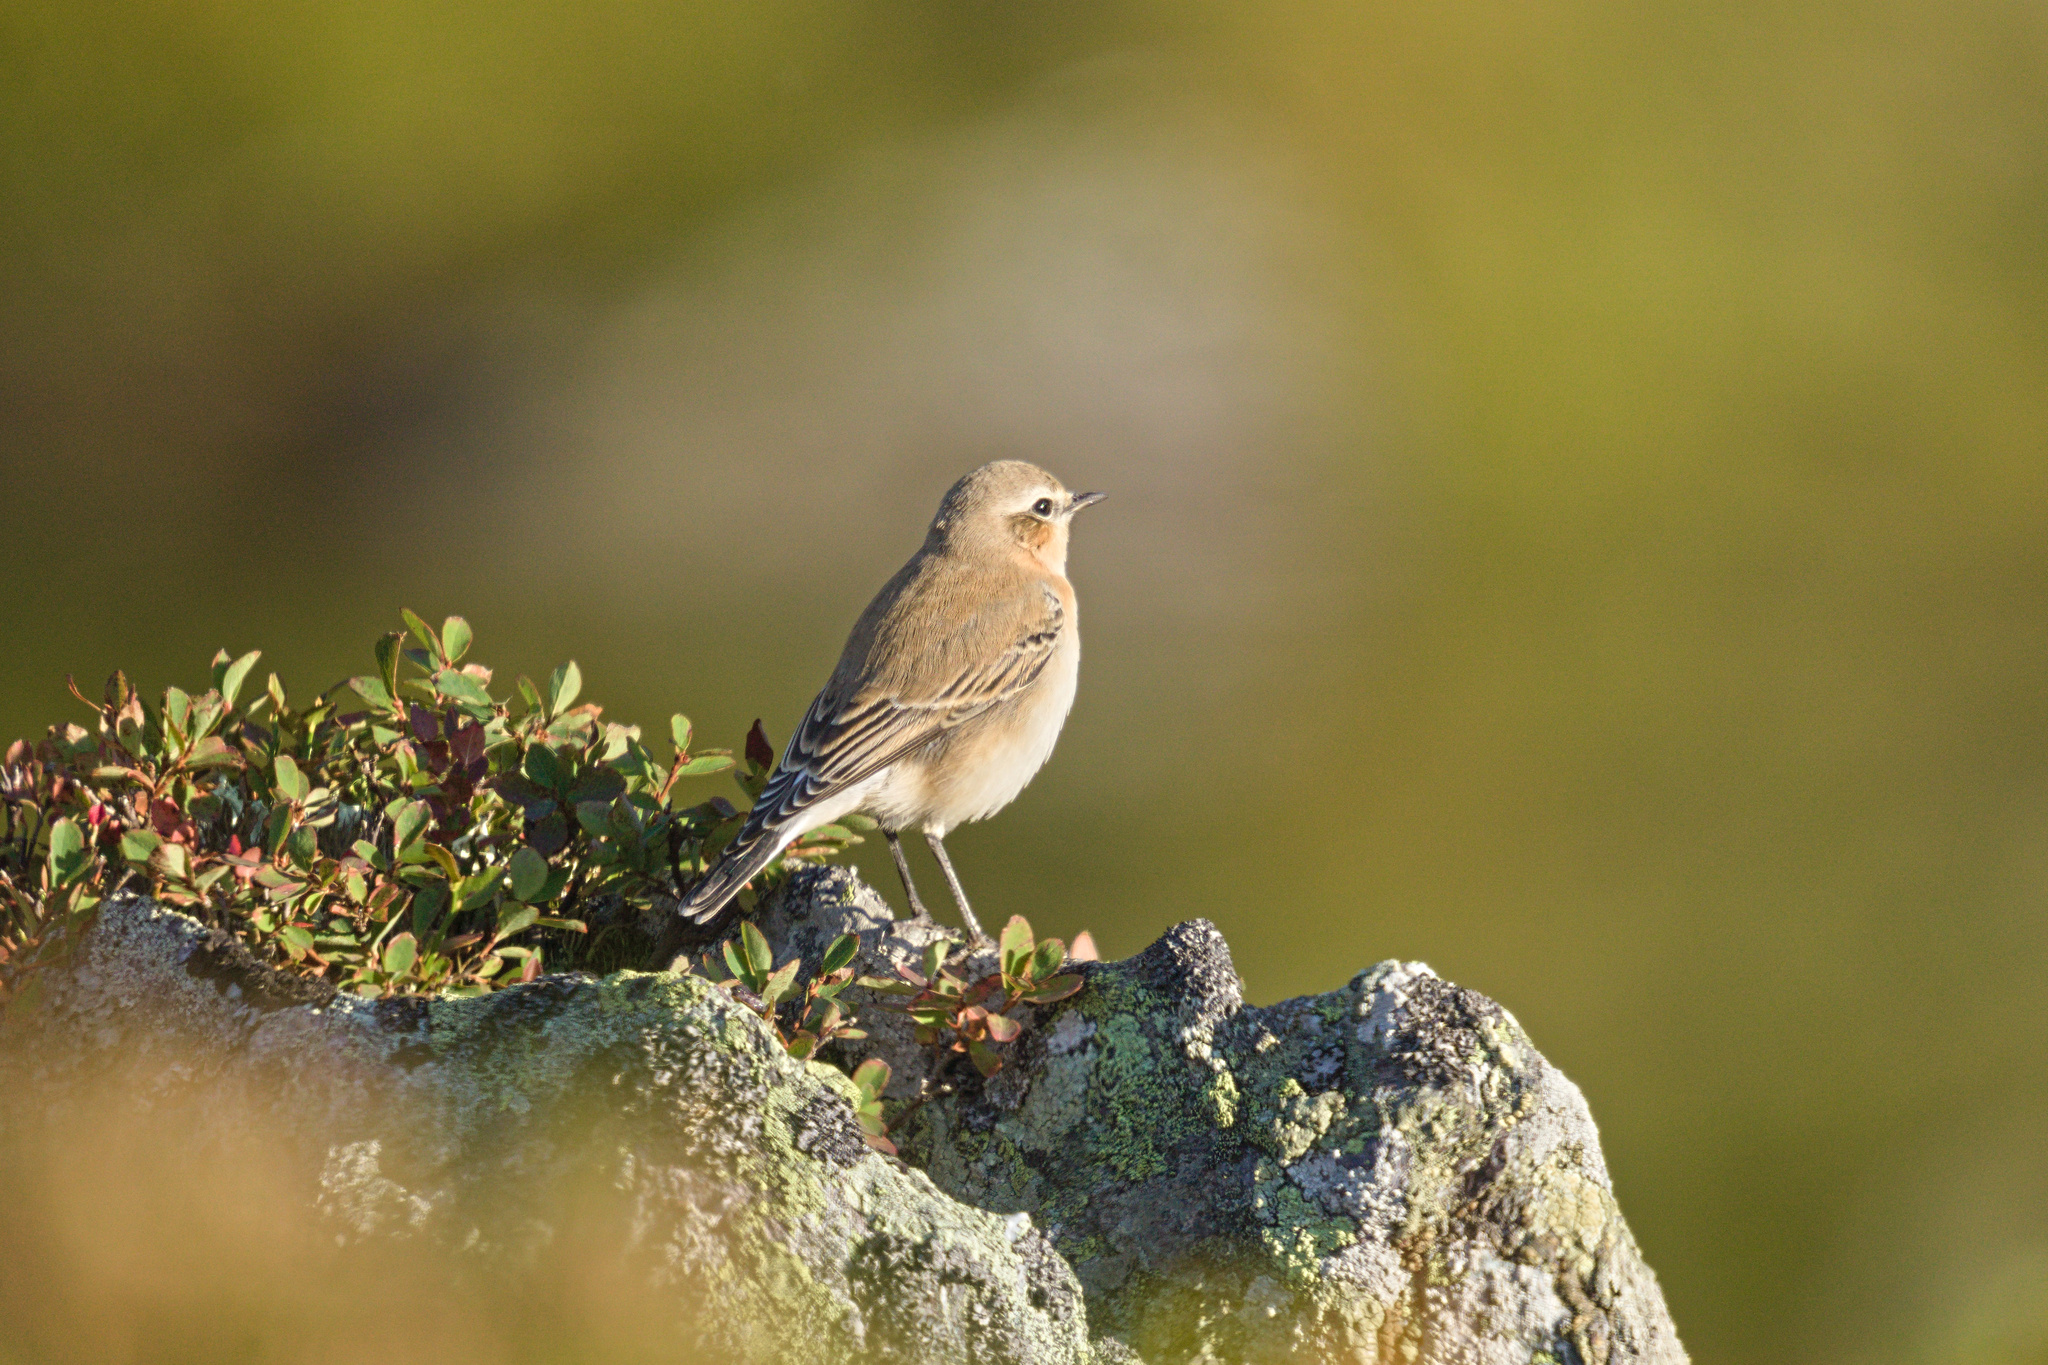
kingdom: Animalia
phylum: Chordata
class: Aves
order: Passeriformes
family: Muscicapidae
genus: Oenanthe
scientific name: Oenanthe oenanthe
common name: Northern wheatear
